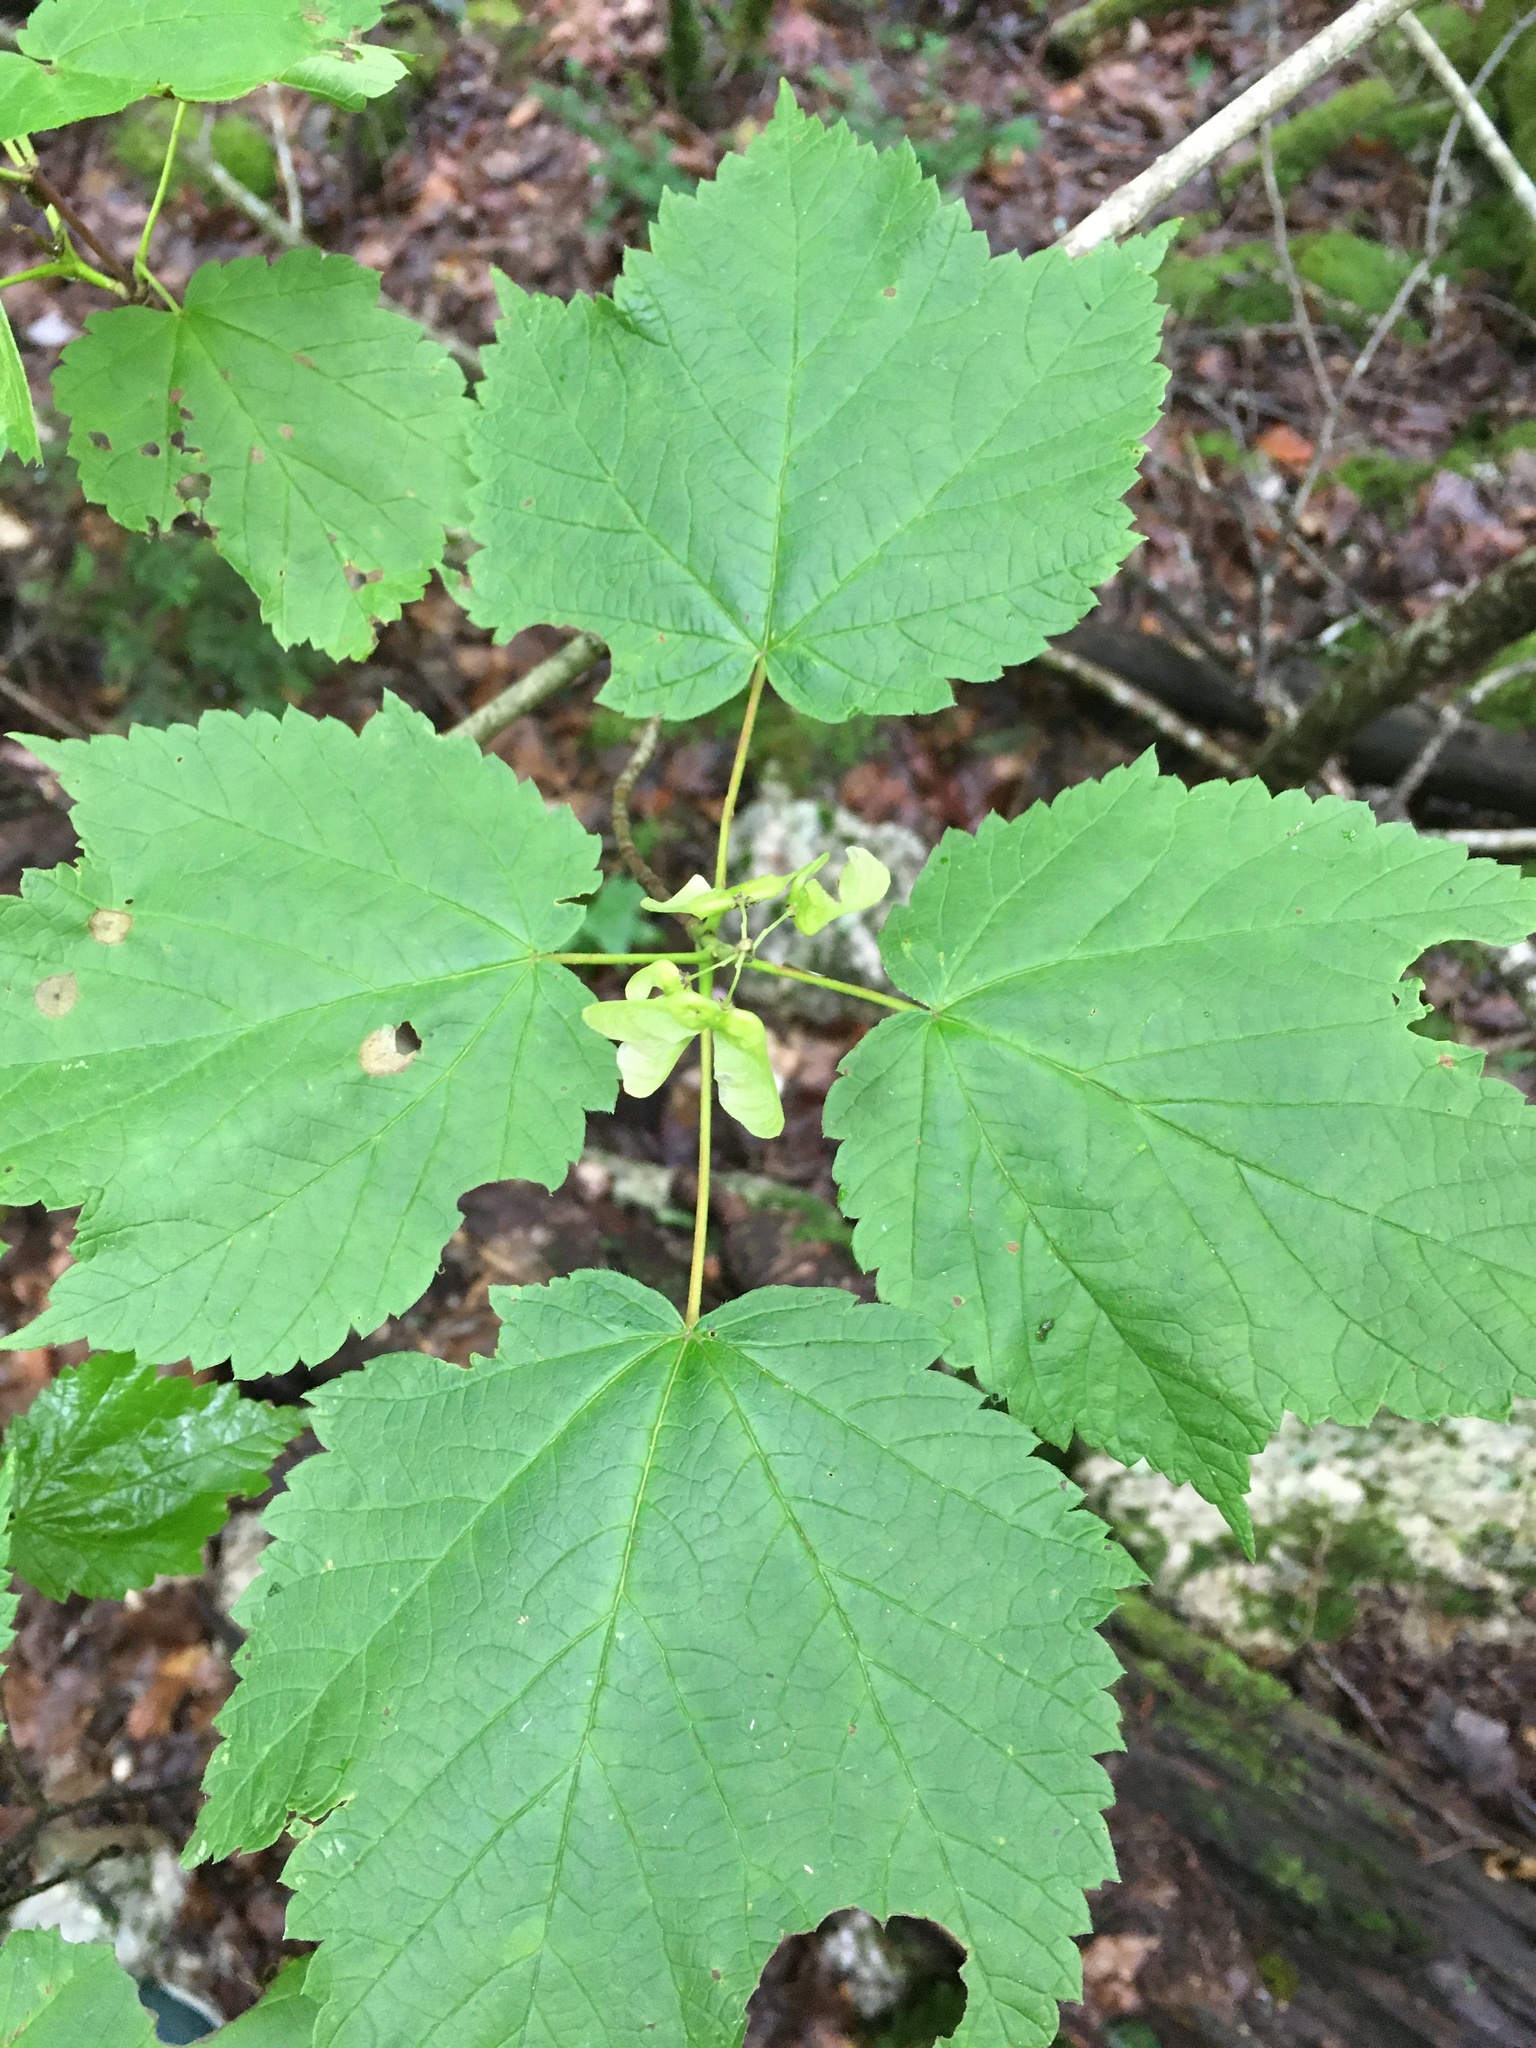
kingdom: Plantae
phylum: Tracheophyta
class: Magnoliopsida
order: Sapindales
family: Sapindaceae
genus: Acer
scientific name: Acer spicatum
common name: Mountain maple
